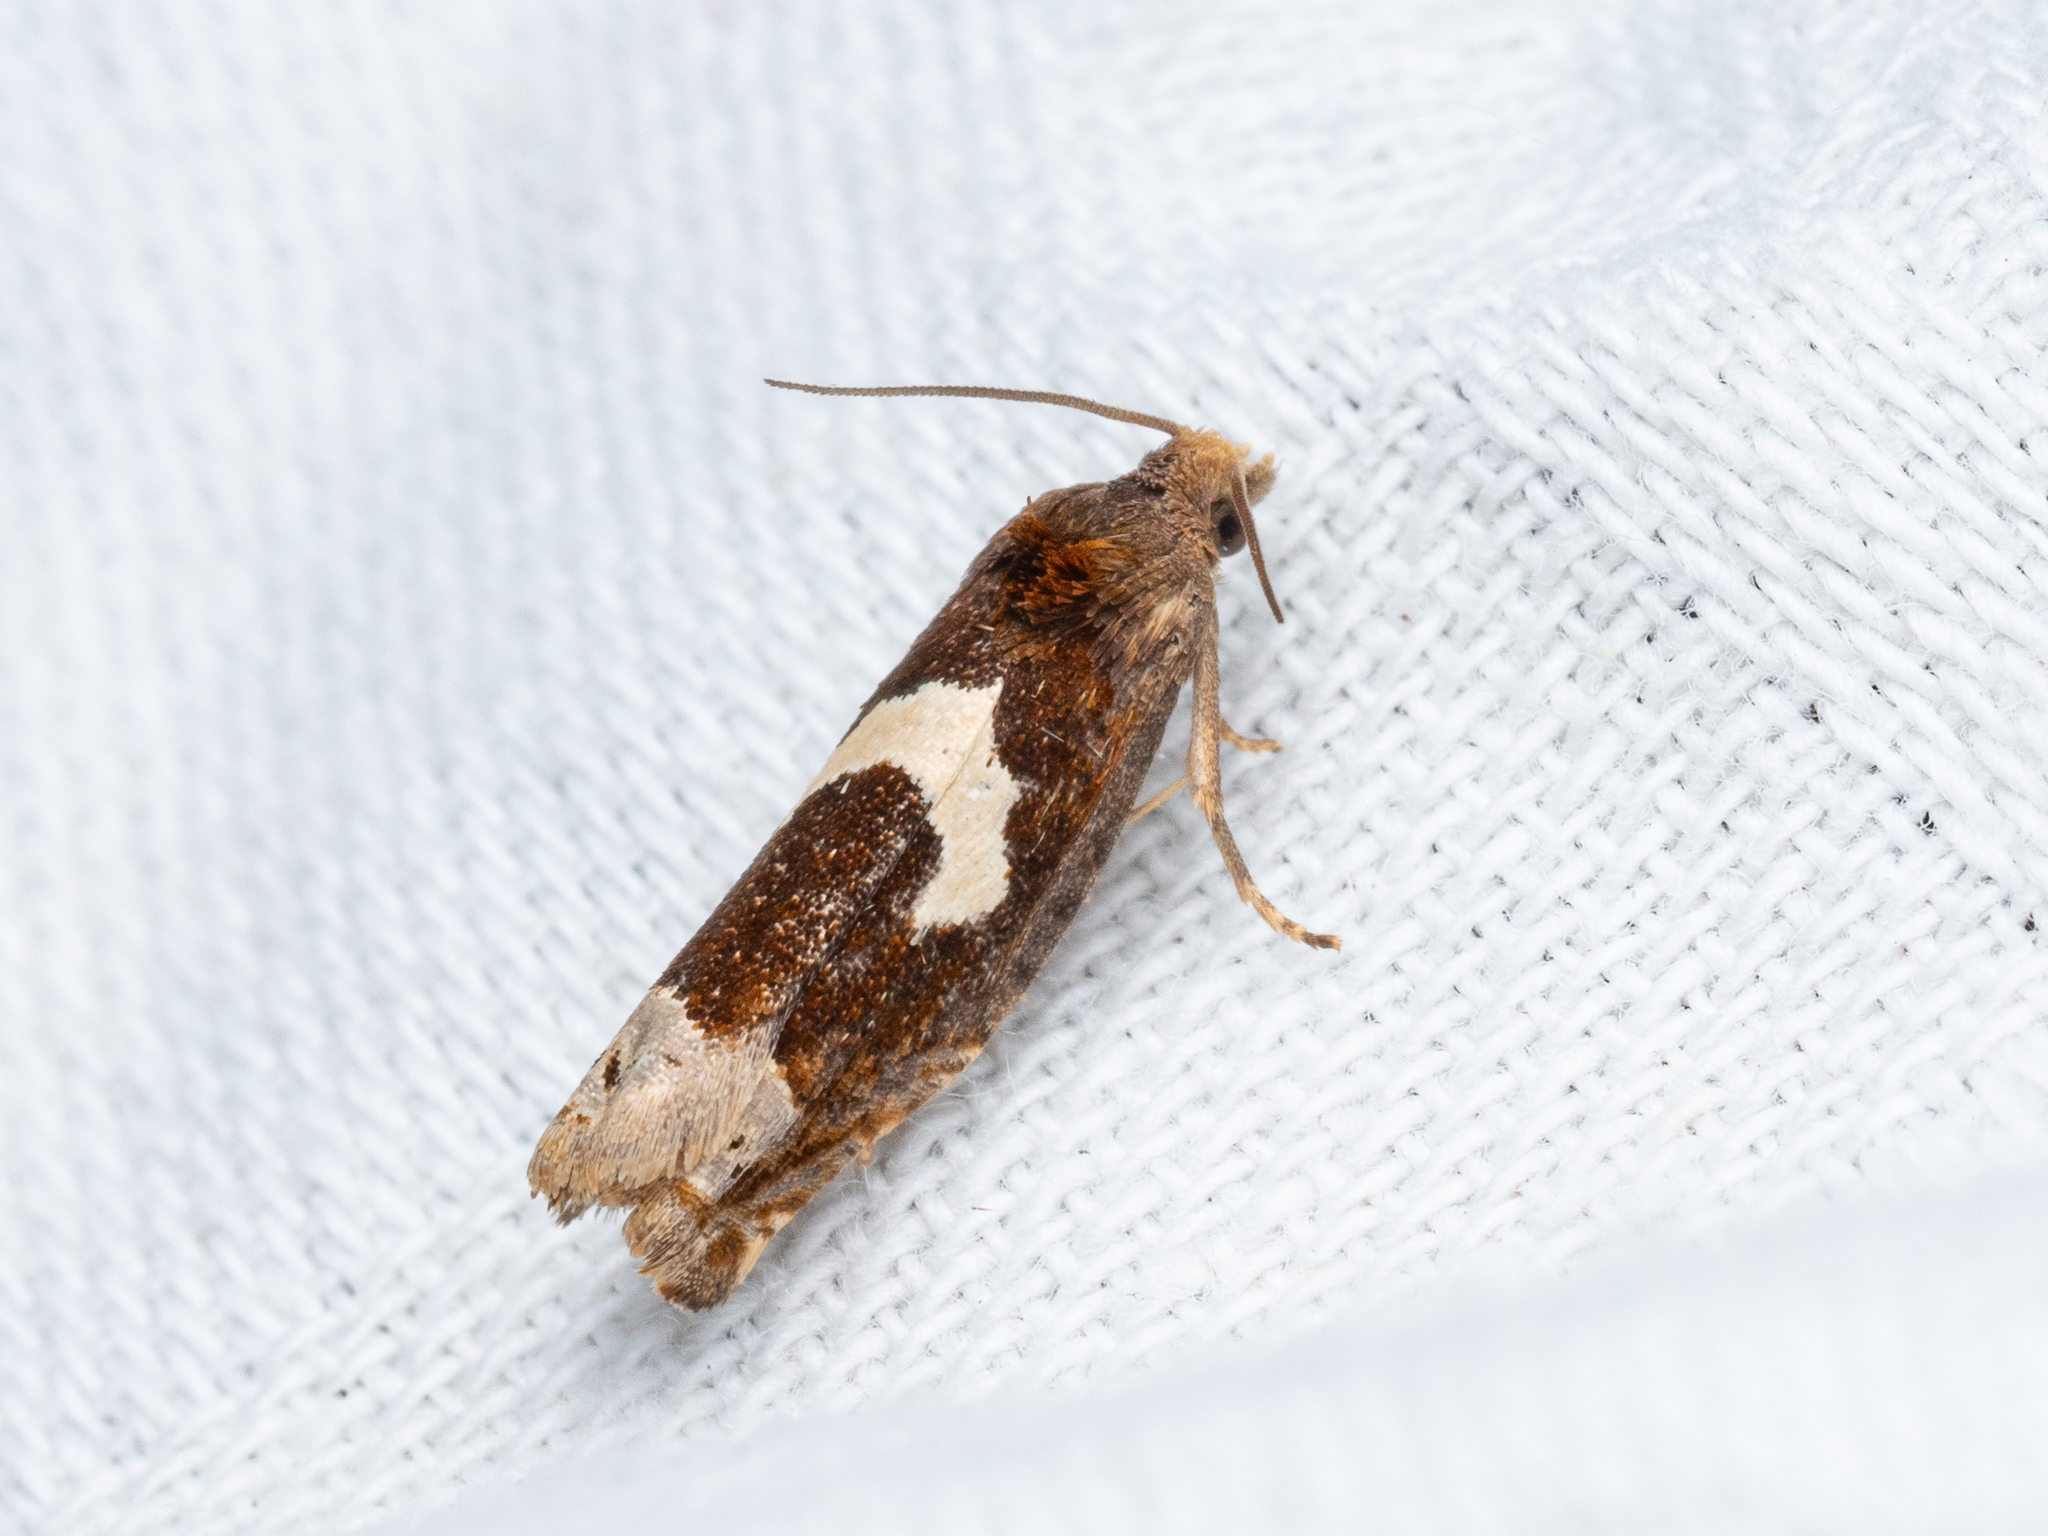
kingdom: Animalia
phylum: Arthropoda
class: Insecta
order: Lepidoptera
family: Tortricidae
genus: Epiblema
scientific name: Epiblema foenella
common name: White-foot bell
